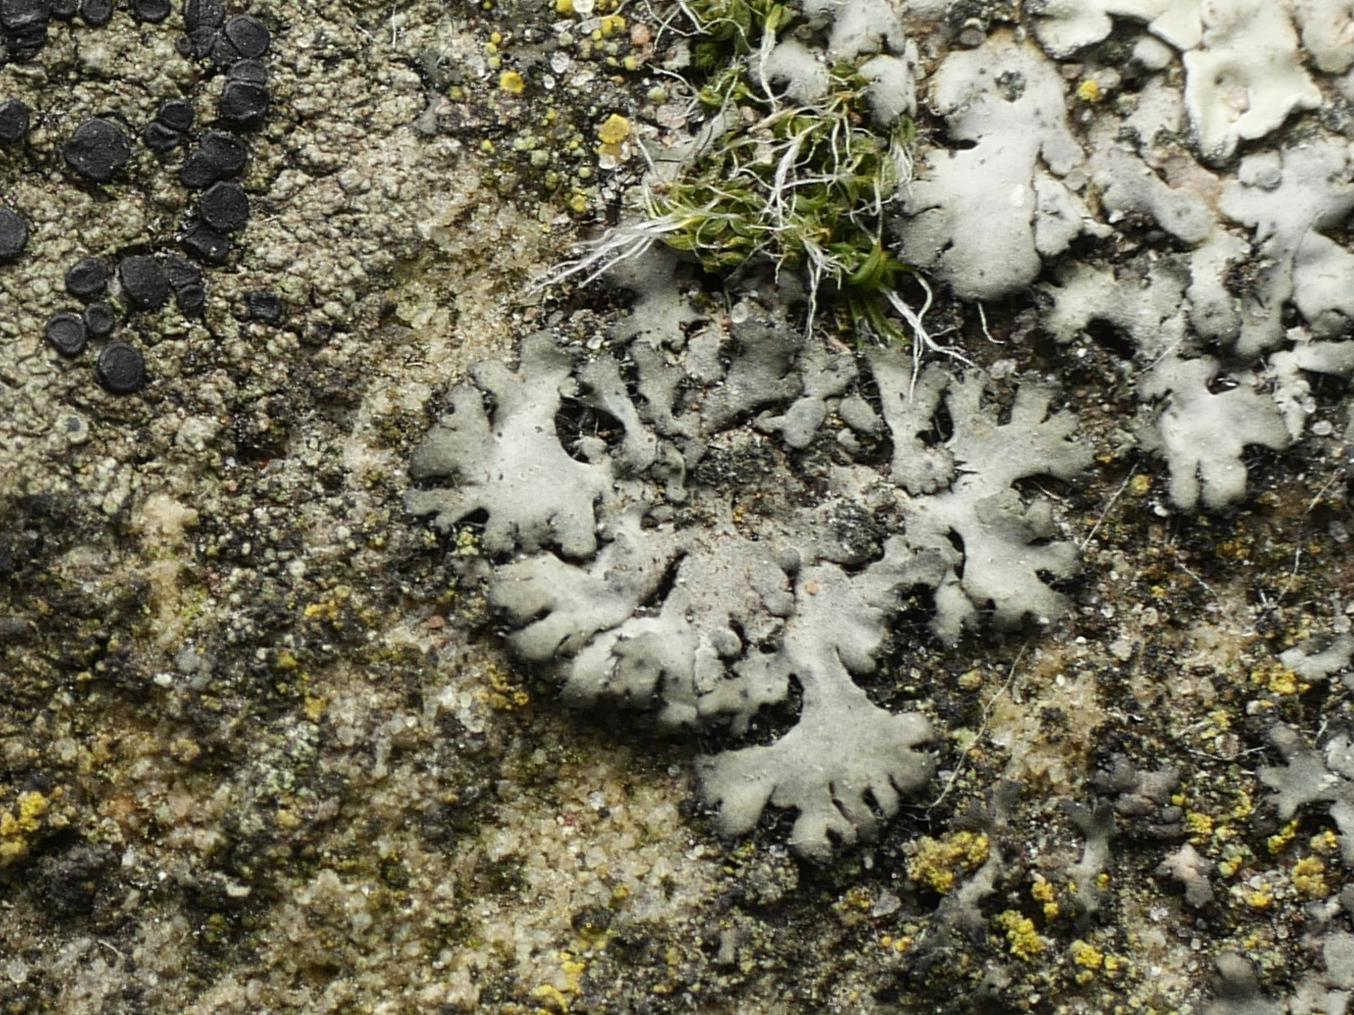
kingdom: Fungi
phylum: Ascomycota
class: Lecanoromycetes
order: Caliciales
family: Physciaceae
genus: Phaeophyscia
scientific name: Phaeophyscia orbicularis
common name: Mealy shadow lichen
